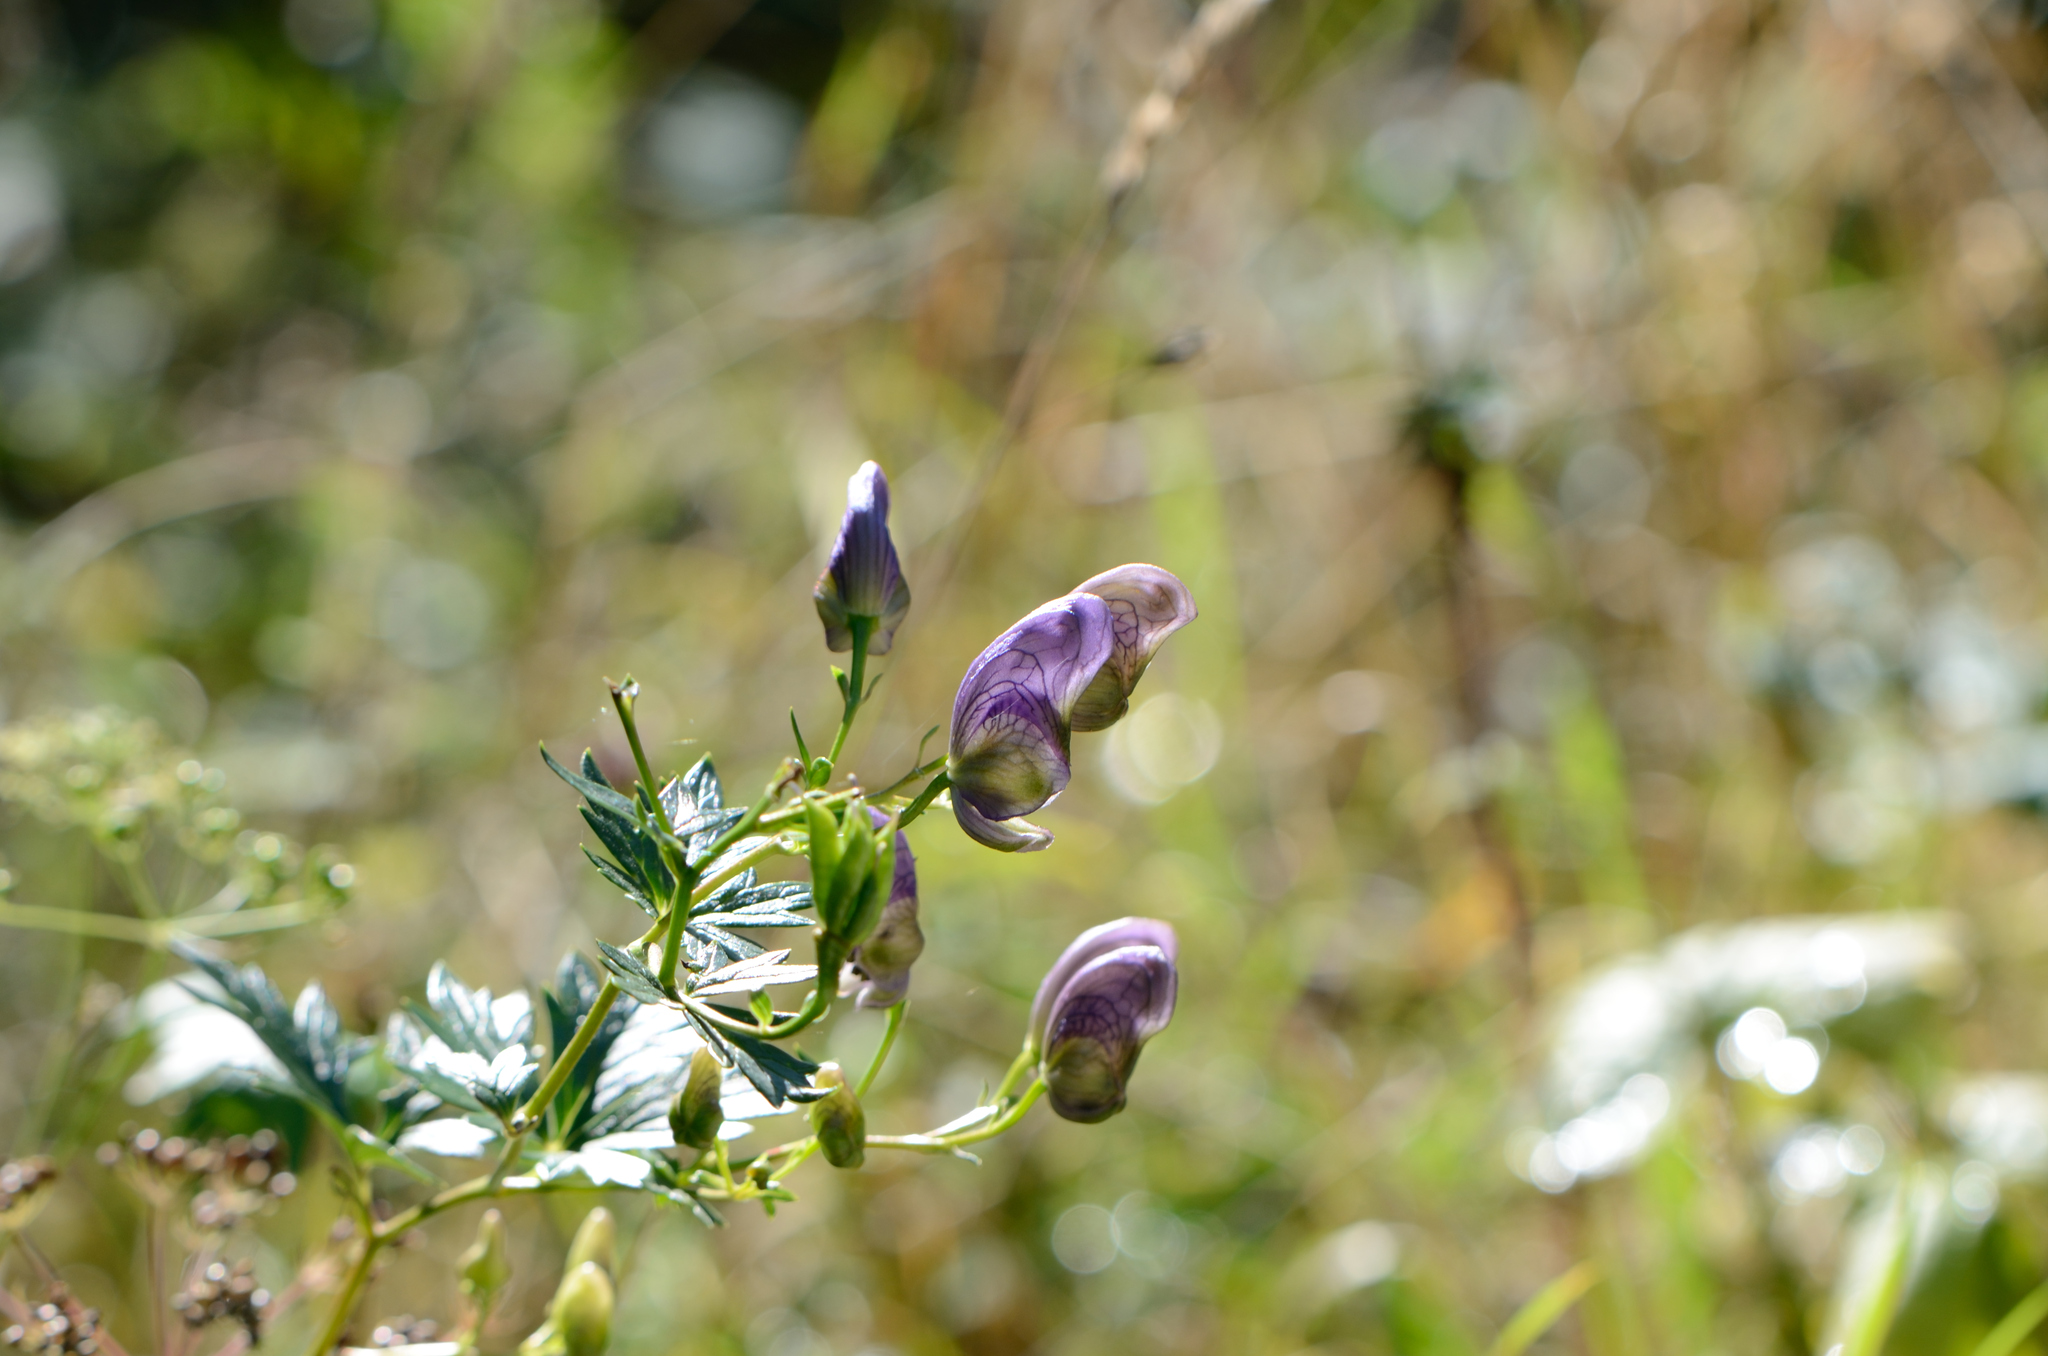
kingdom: Plantae
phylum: Tracheophyta
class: Magnoliopsida
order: Ranunculales
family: Ranunculaceae
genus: Aconitum
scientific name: Aconitum variegatum
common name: Manchurian monkshood
